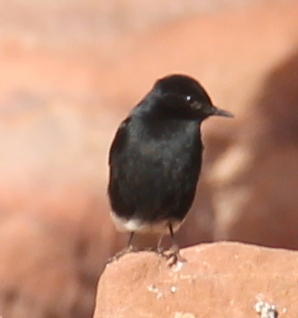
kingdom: Animalia
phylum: Chordata
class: Aves
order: Passeriformes
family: Muscicapidae
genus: Oenanthe
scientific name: Oenanthe leucopyga
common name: White-crowned wheatear
